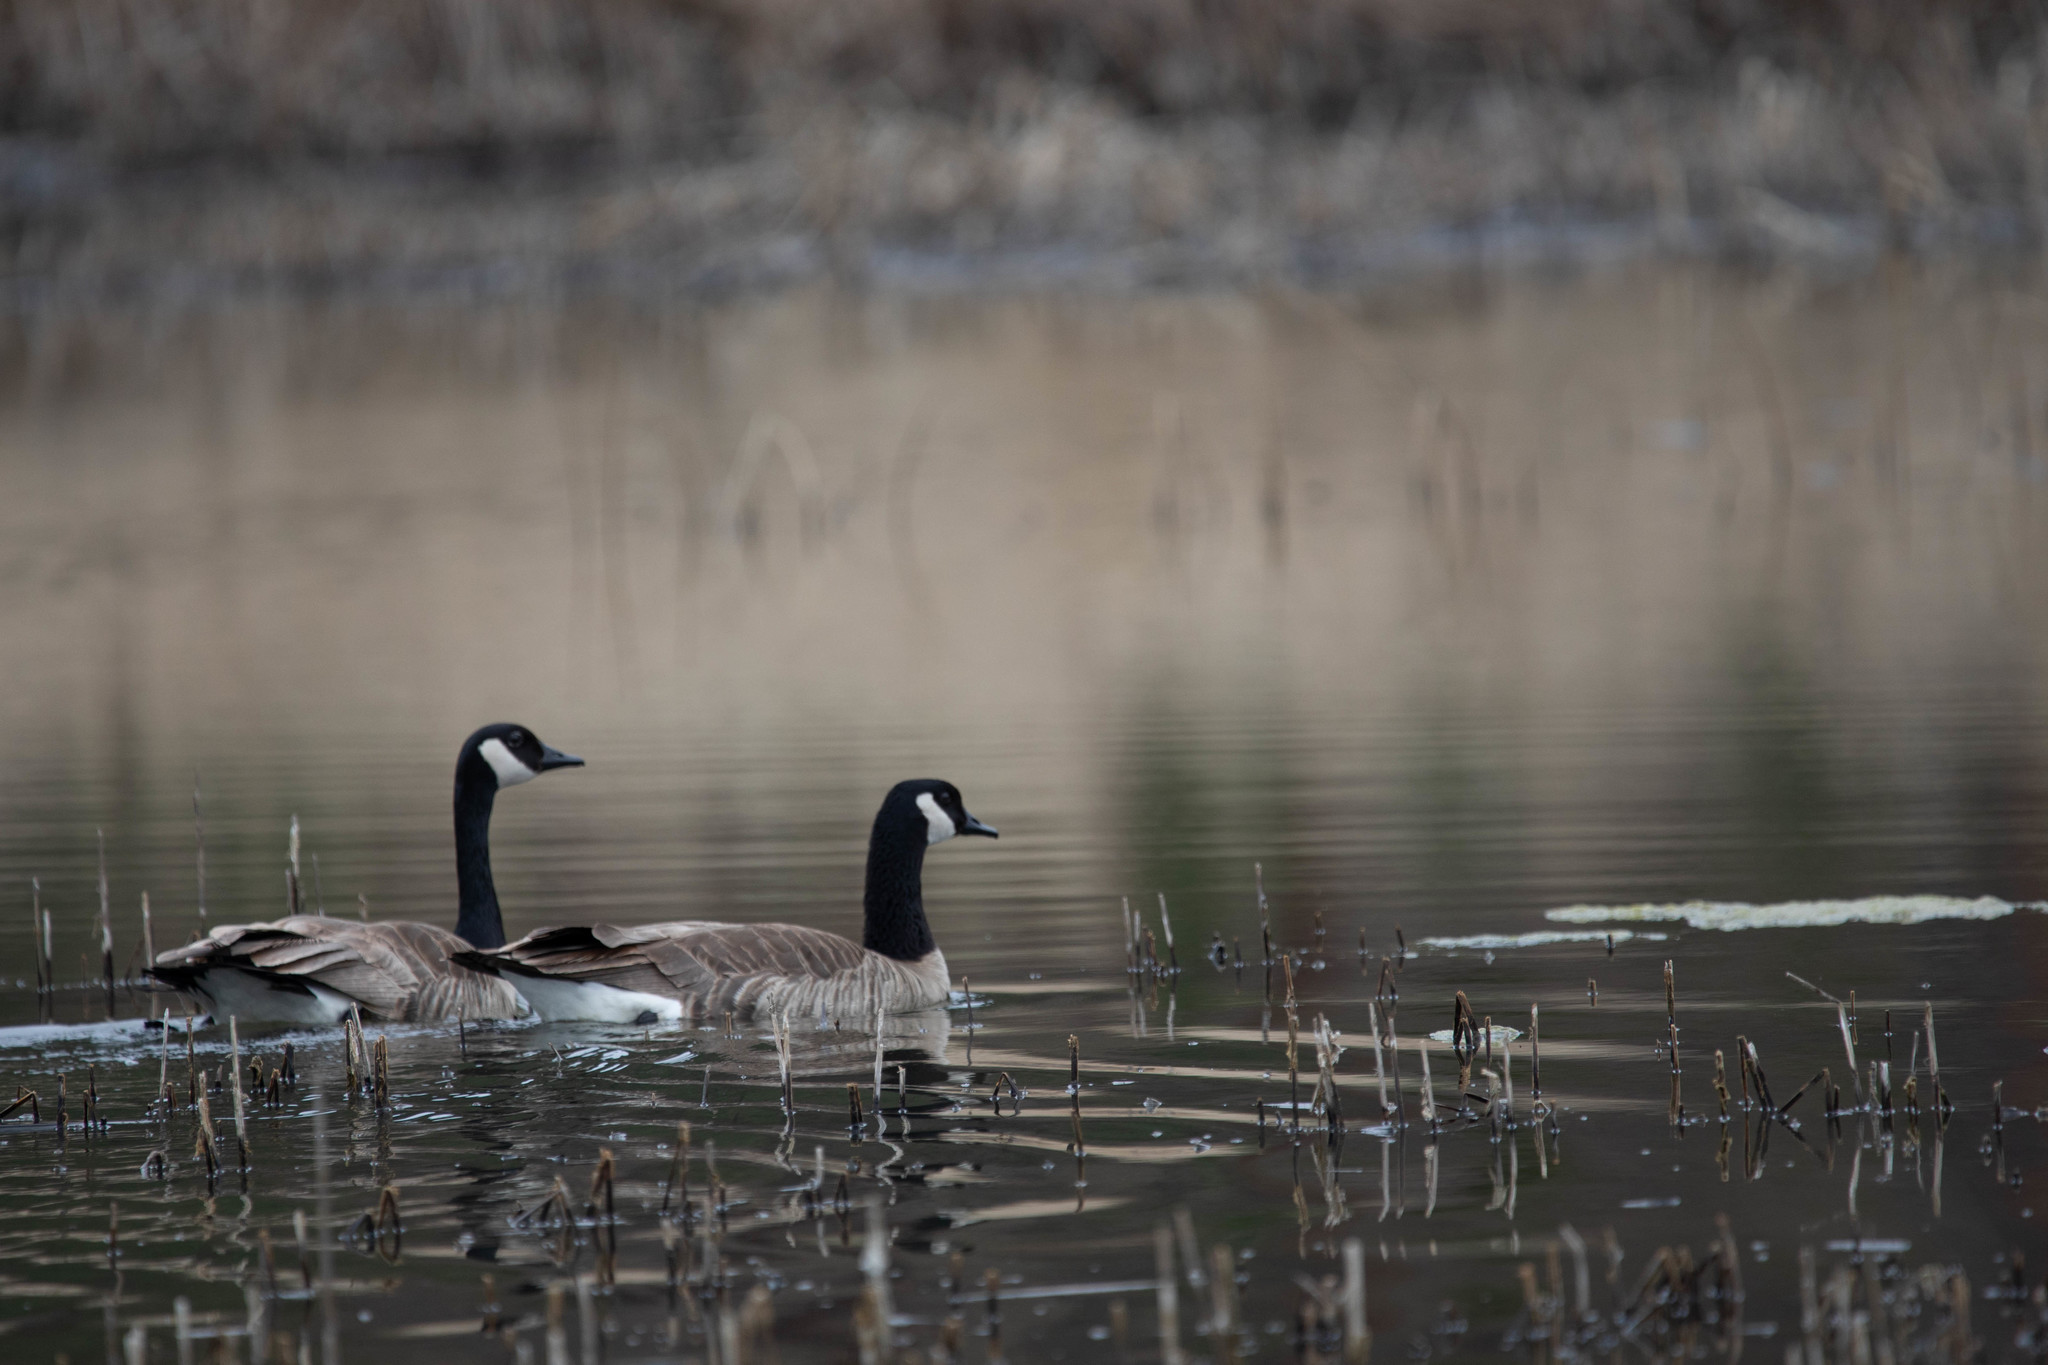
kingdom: Animalia
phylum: Chordata
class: Aves
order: Anseriformes
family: Anatidae
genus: Branta
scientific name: Branta hutchinsii
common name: Cackling goose
